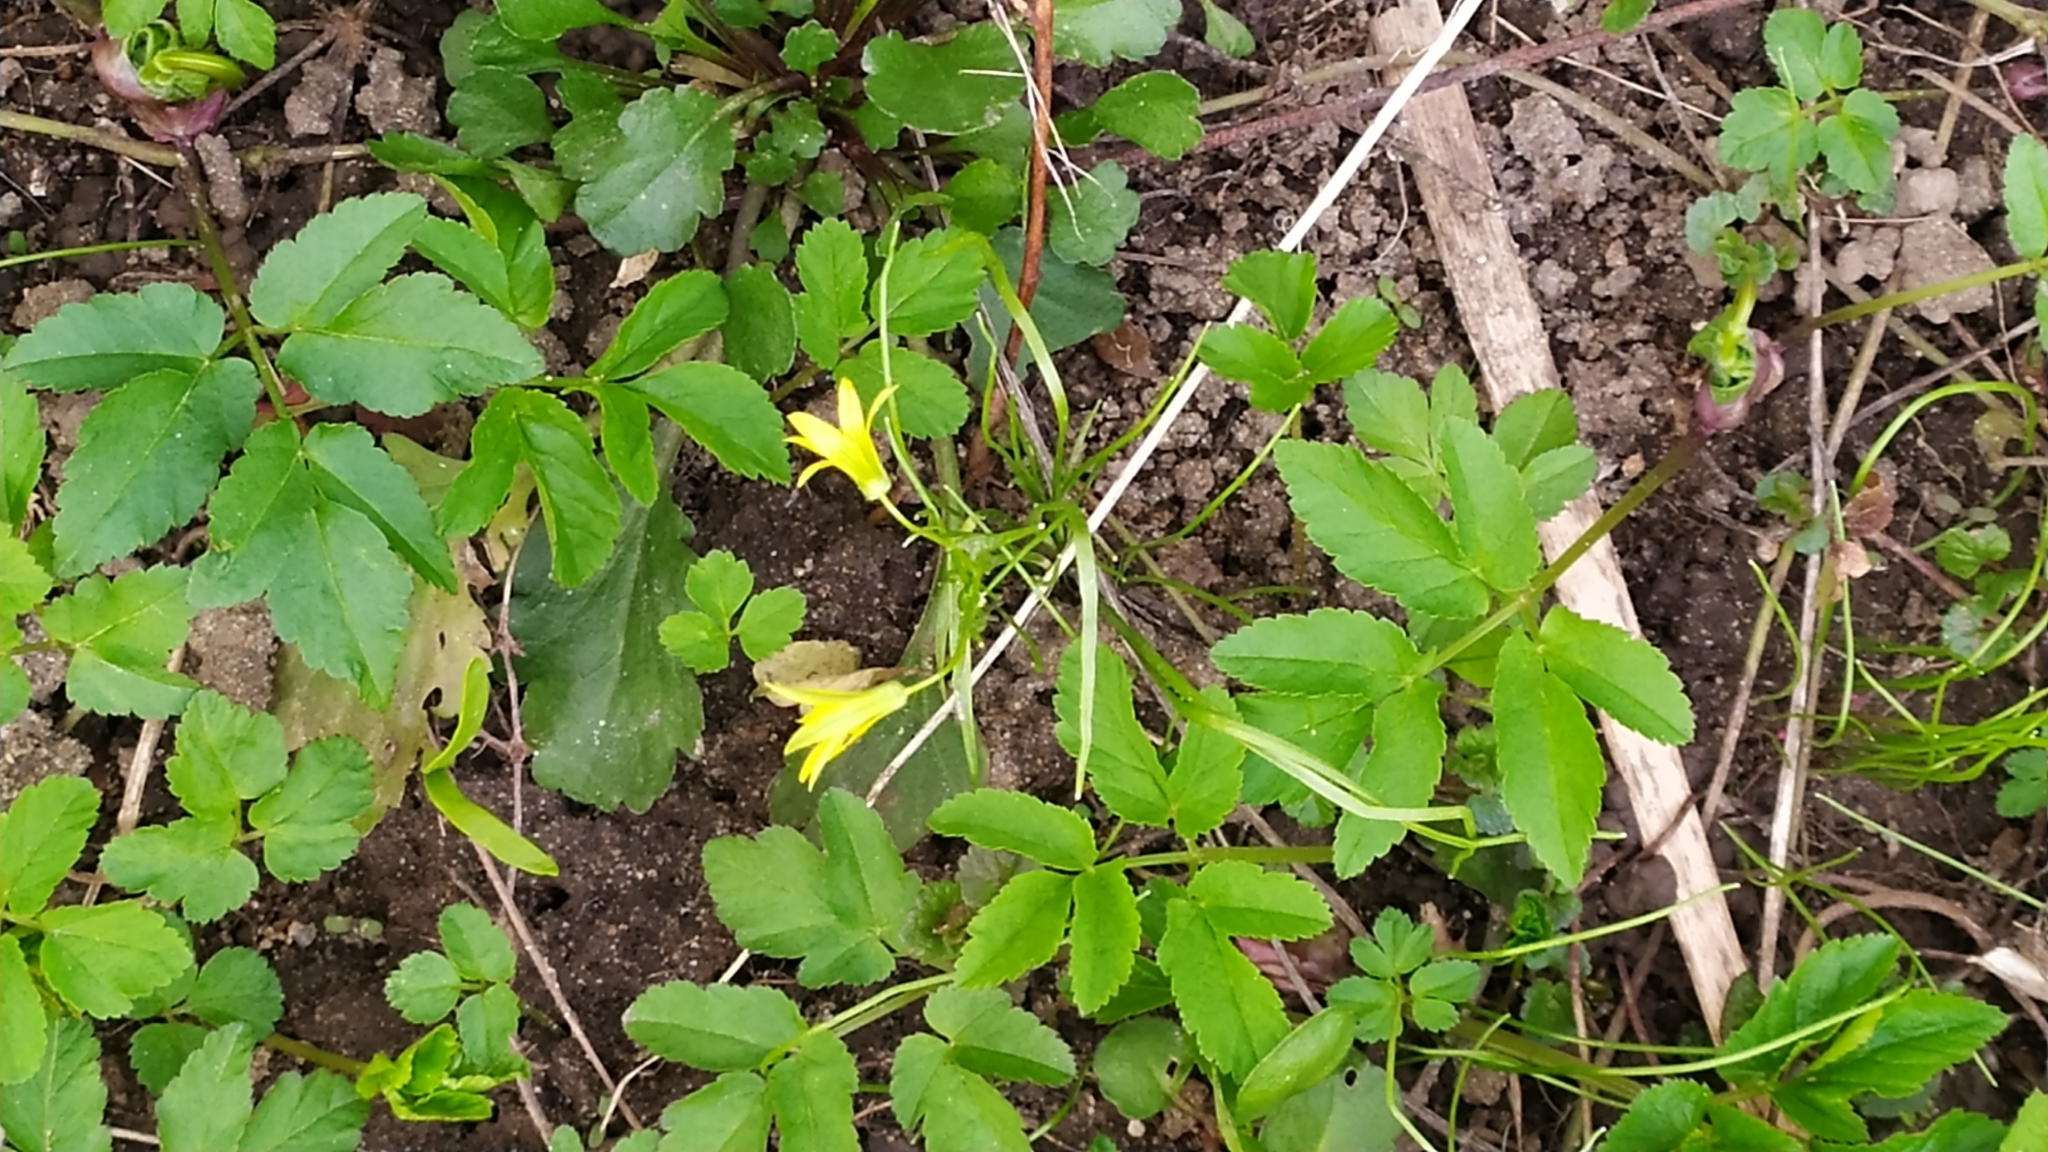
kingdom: Plantae
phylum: Tracheophyta
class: Liliopsida
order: Liliales
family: Liliaceae
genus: Gagea
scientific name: Gagea minima
